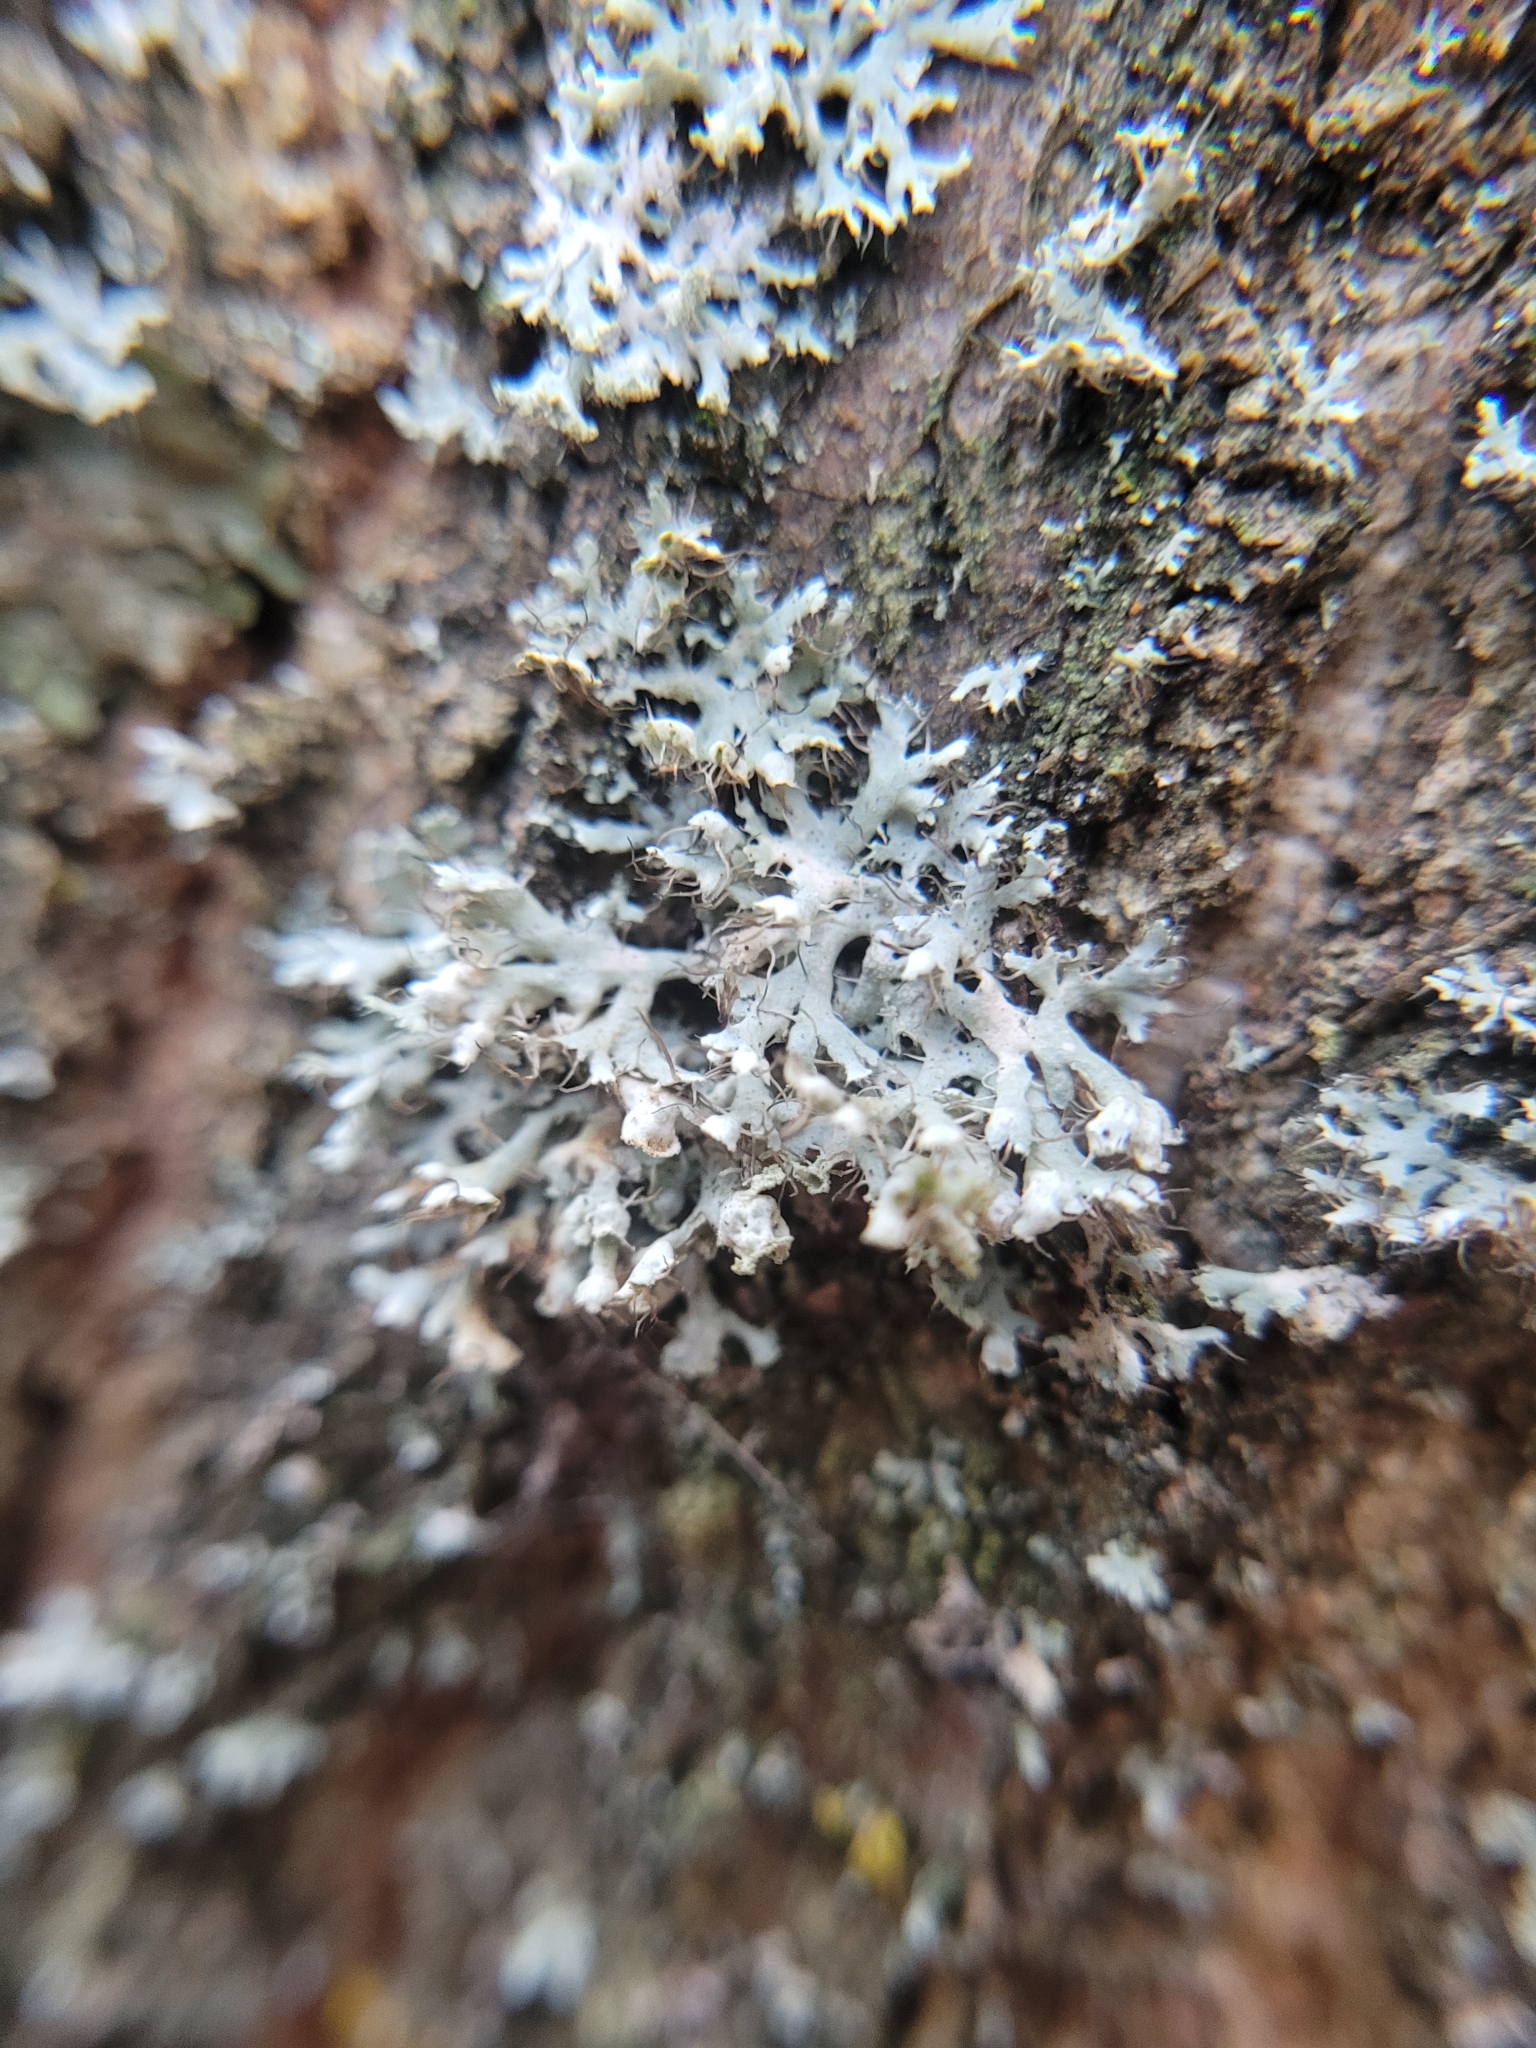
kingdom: Fungi
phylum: Ascomycota
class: Lecanoromycetes
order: Caliciales
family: Physciaceae
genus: Physcia
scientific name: Physcia adscendens
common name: Hooded rosette lichen
